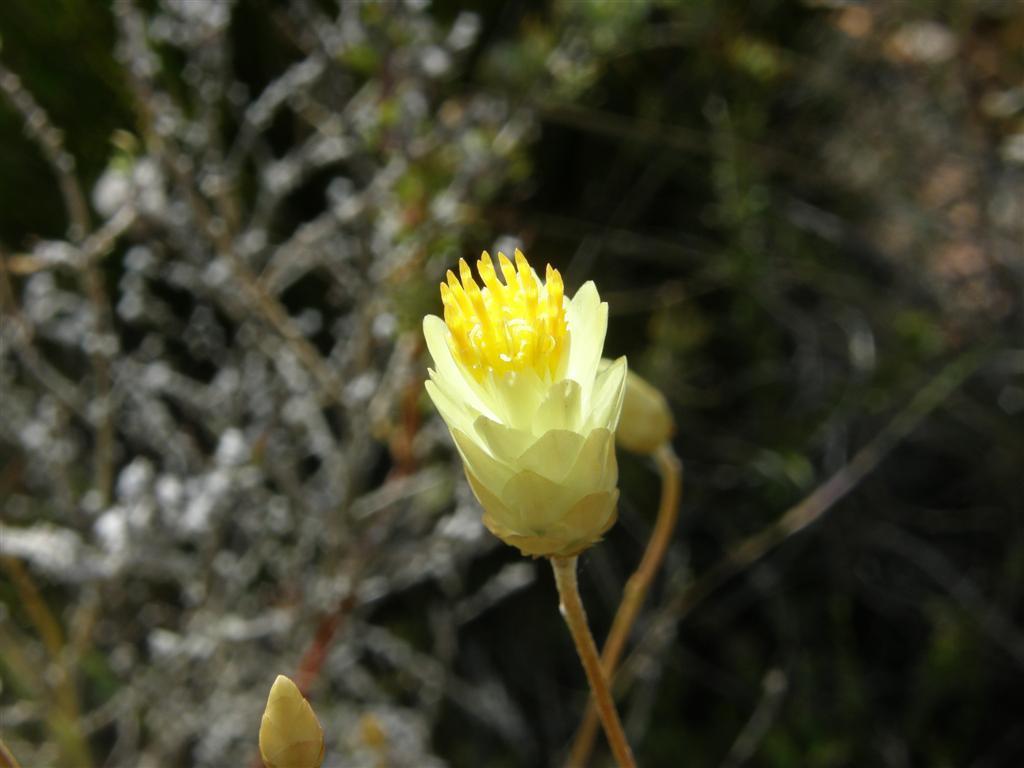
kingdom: Plantae
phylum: Tracheophyta
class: Magnoliopsida
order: Asterales
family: Asteraceae
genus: Syncarpha
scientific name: Syncarpha staehelina
